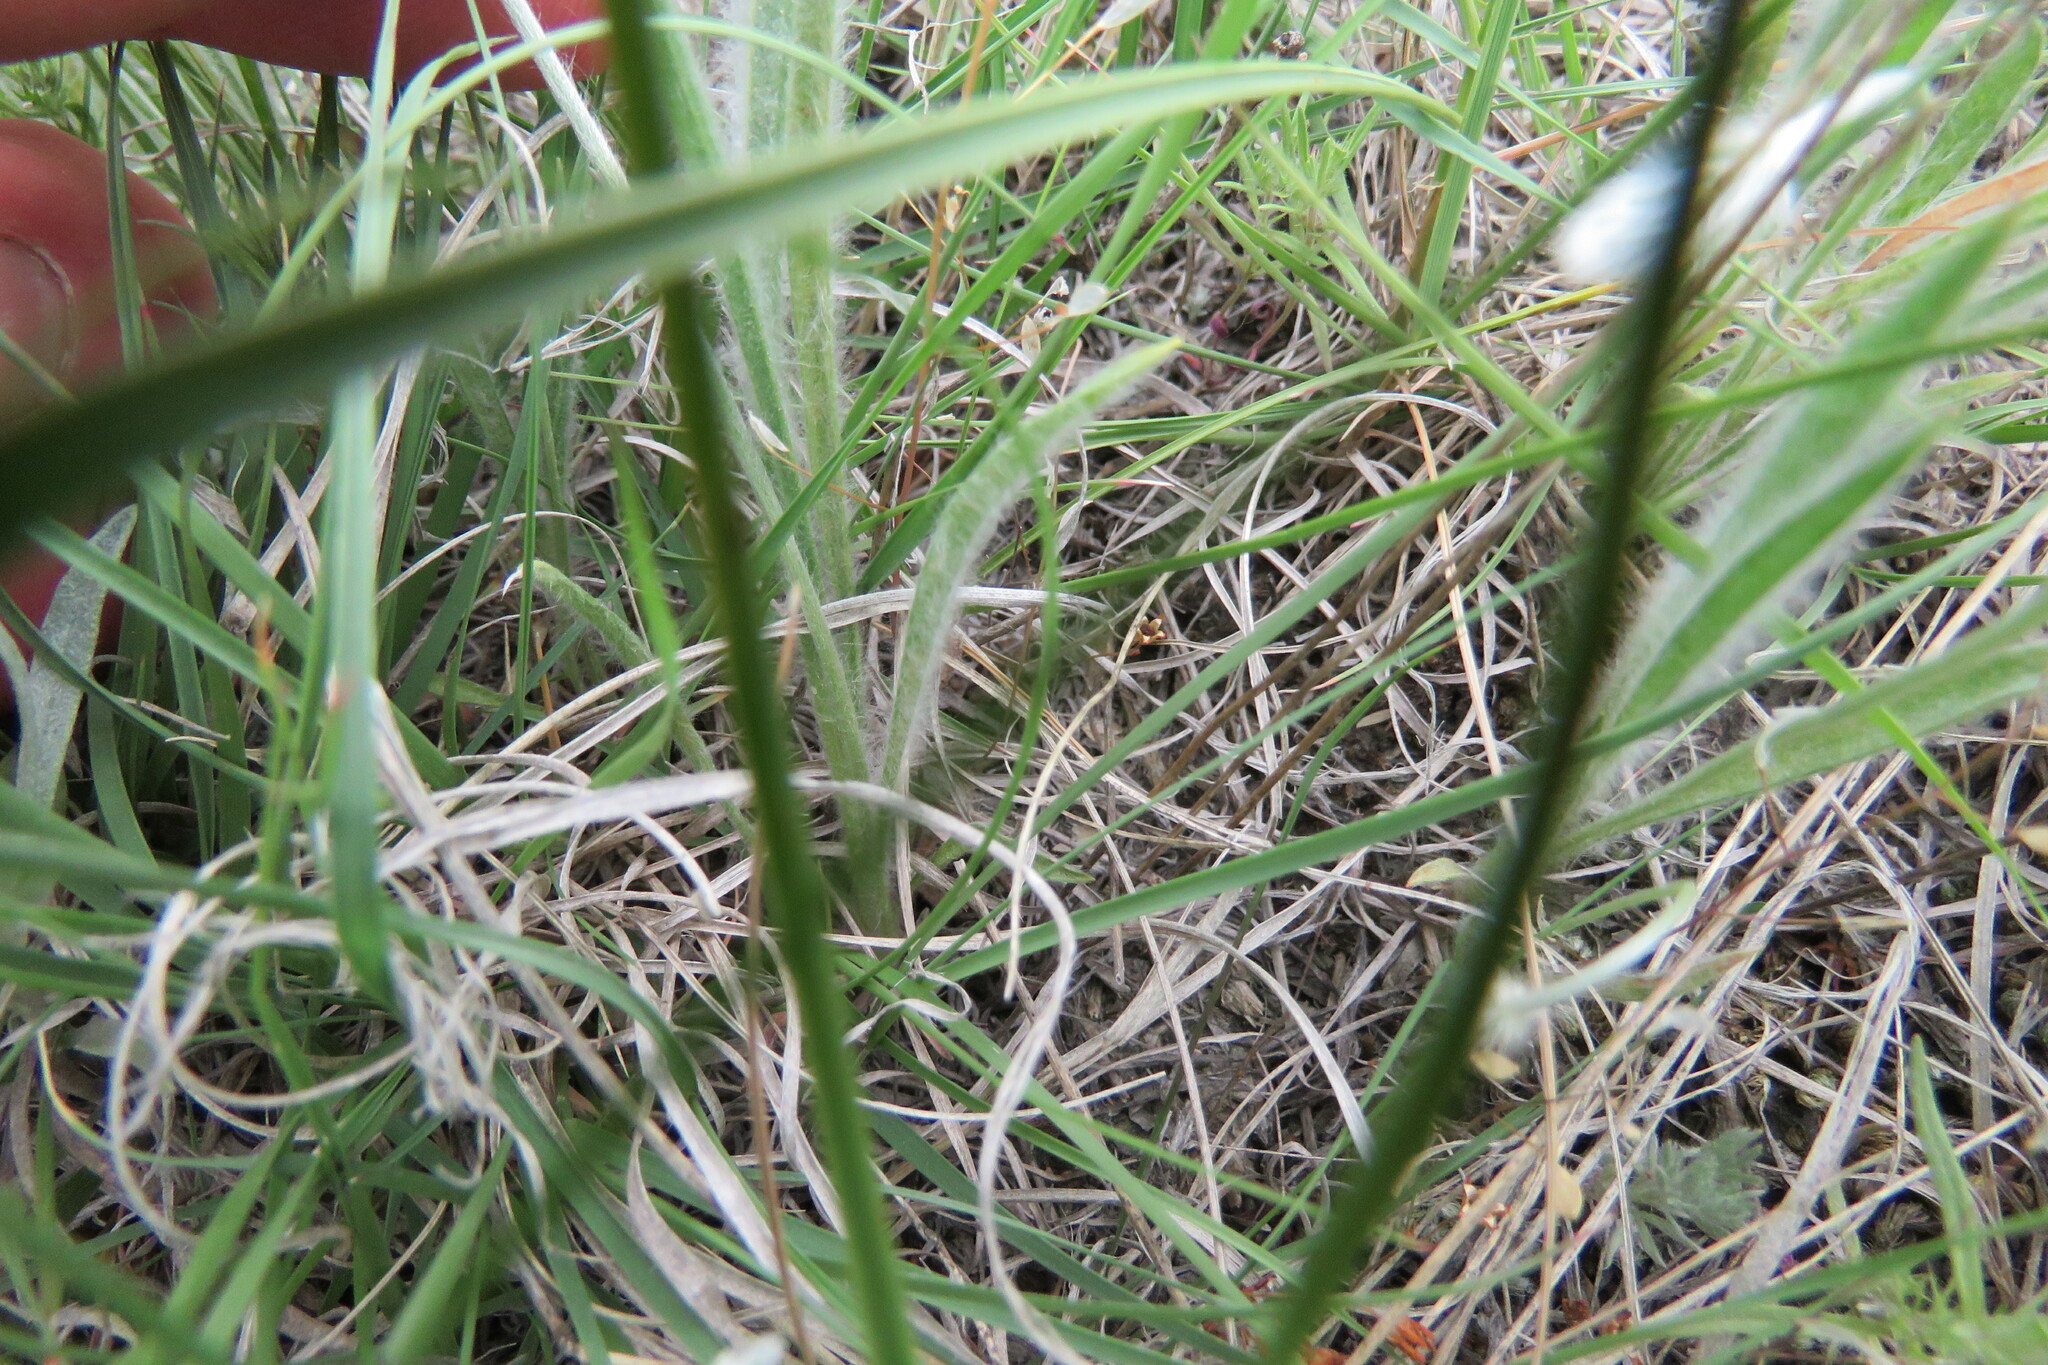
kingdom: Plantae
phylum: Tracheophyta
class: Magnoliopsida
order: Lamiales
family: Plantaginaceae
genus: Plantago
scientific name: Plantago patagonica
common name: Patagonia indian-wheat
